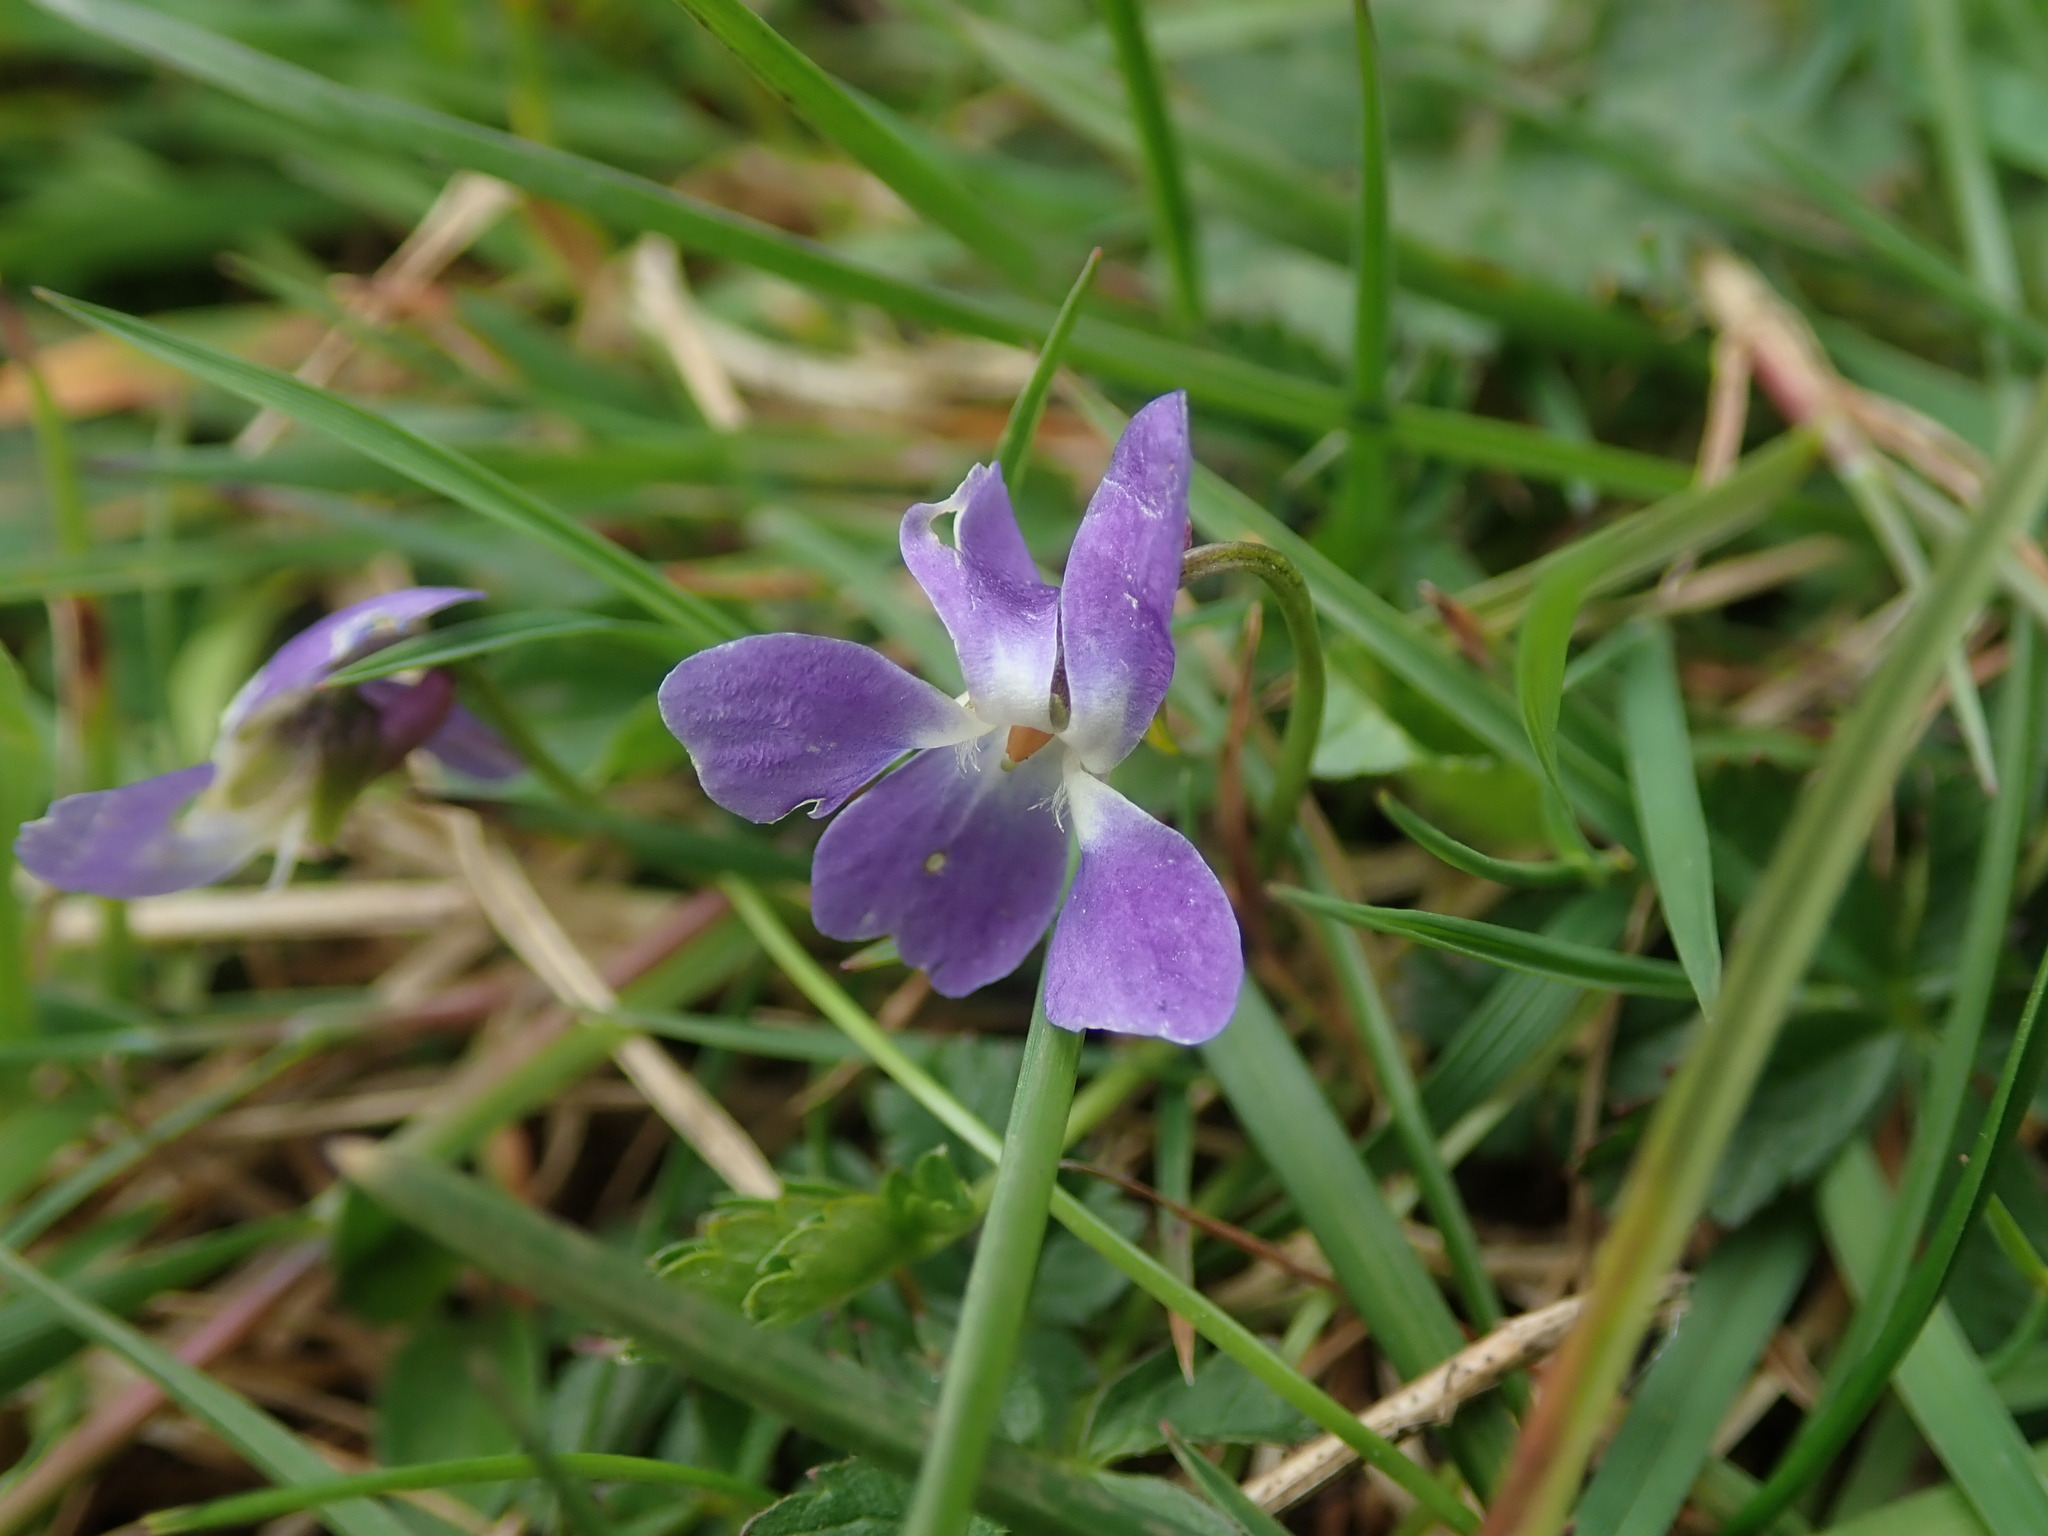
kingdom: Plantae
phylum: Tracheophyta
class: Magnoliopsida
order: Malpighiales
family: Violaceae
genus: Viola
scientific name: Viola hirta
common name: Hairy violet
